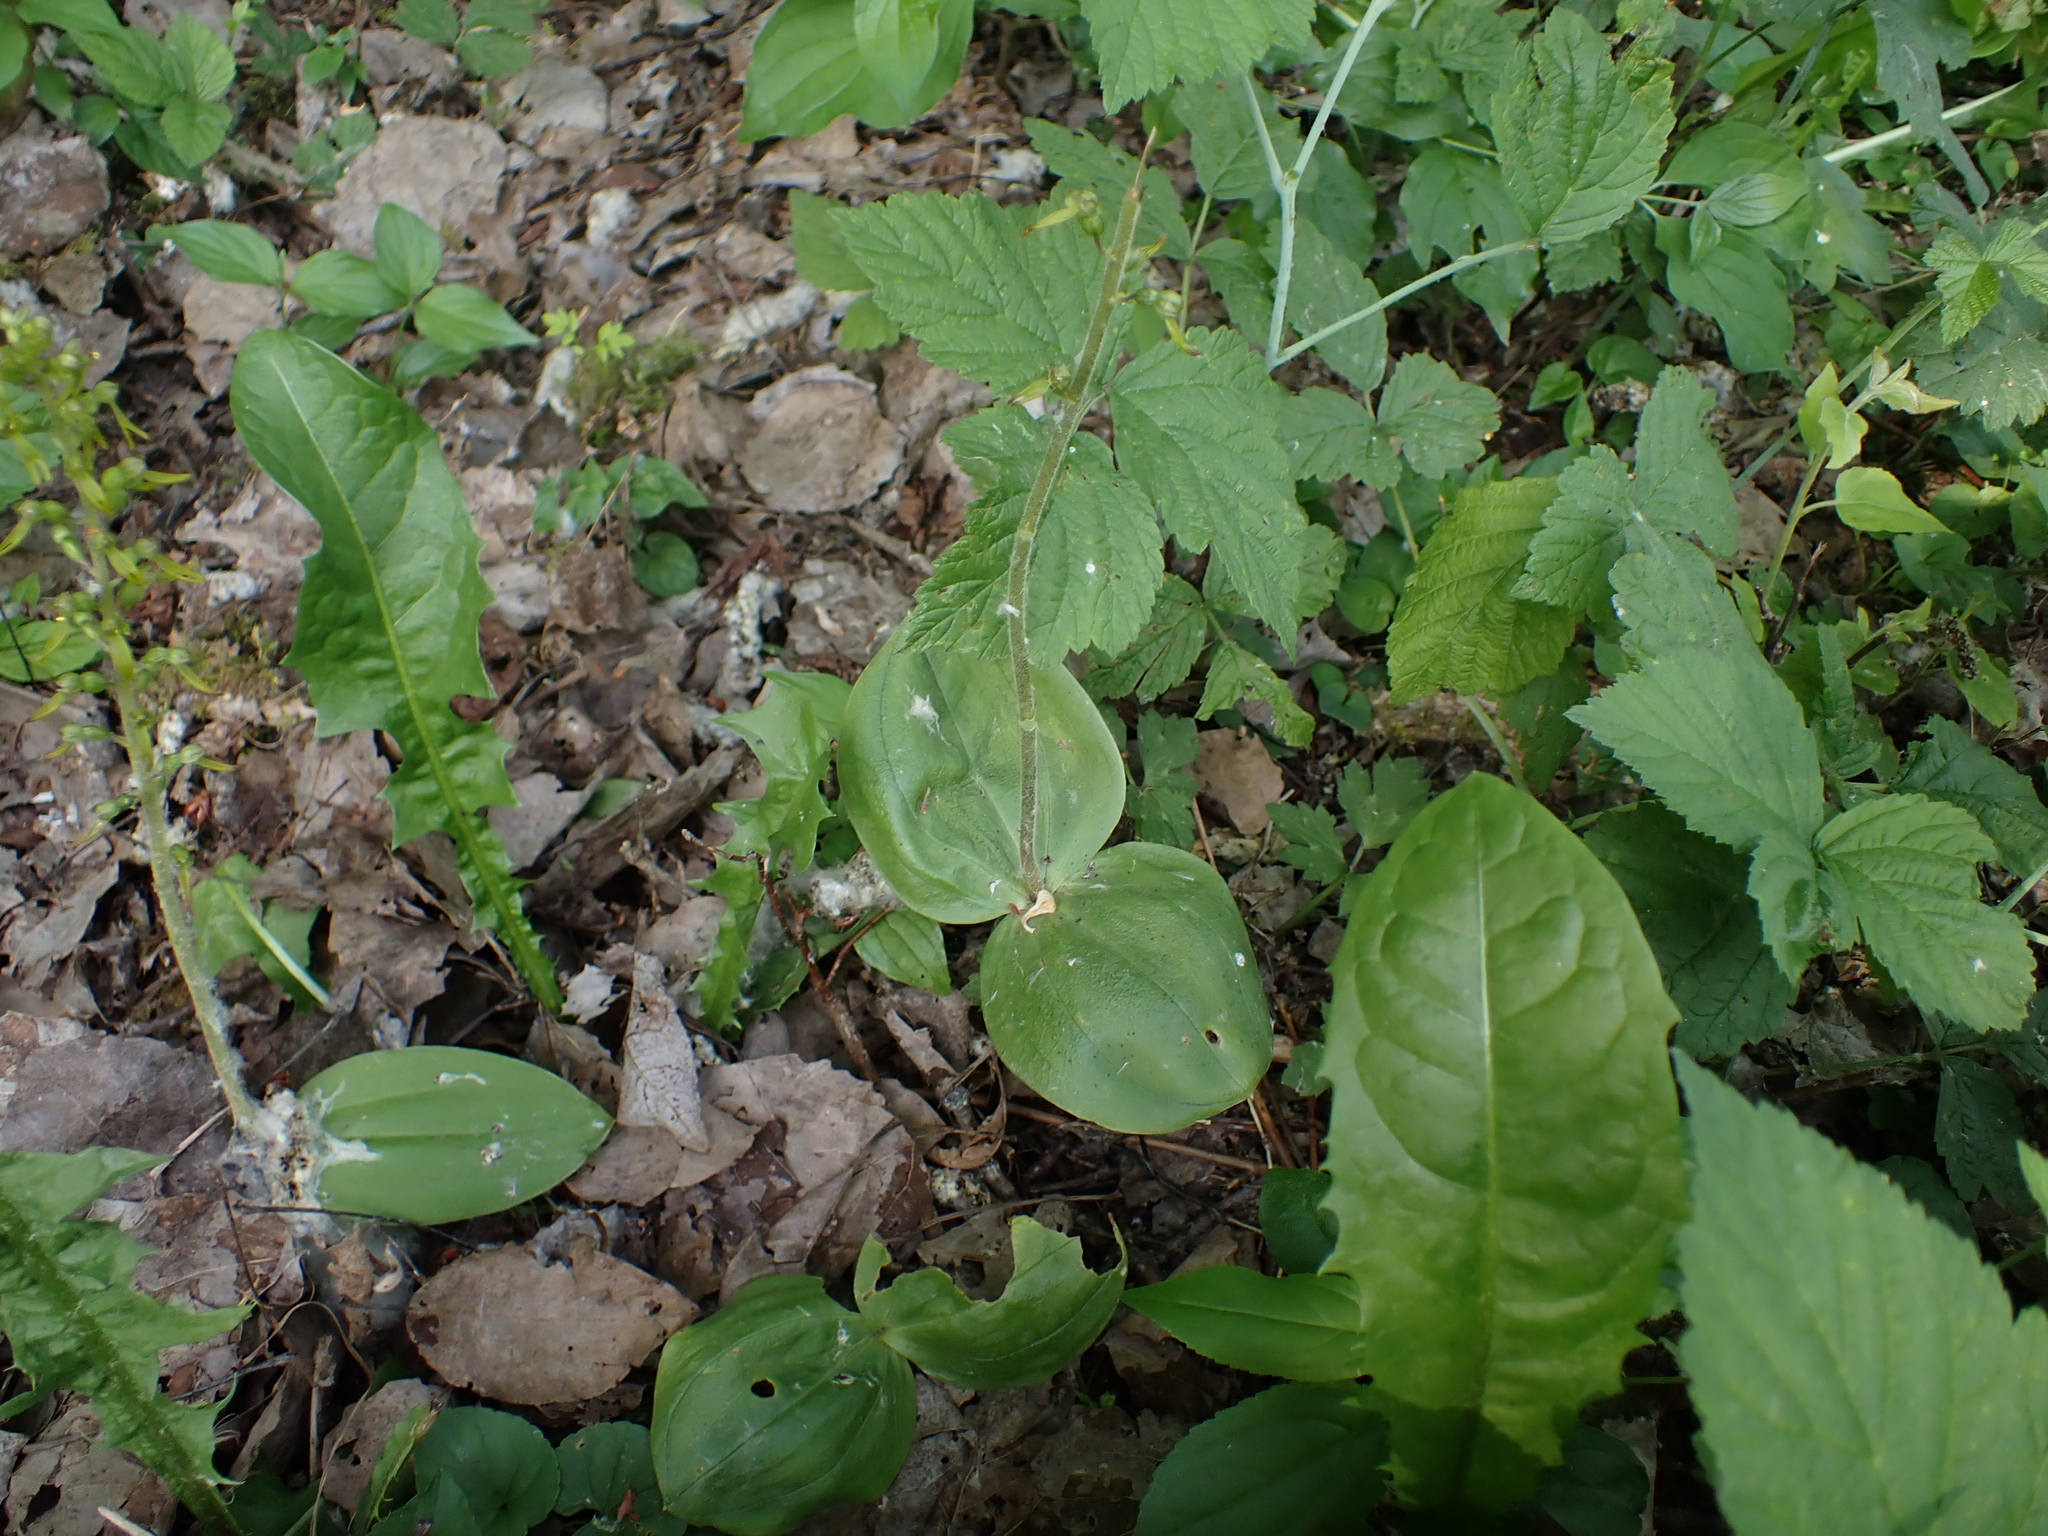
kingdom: Plantae
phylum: Tracheophyta
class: Liliopsida
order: Asparagales
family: Orchidaceae
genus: Neottia
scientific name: Neottia ovata
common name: Common twayblade
